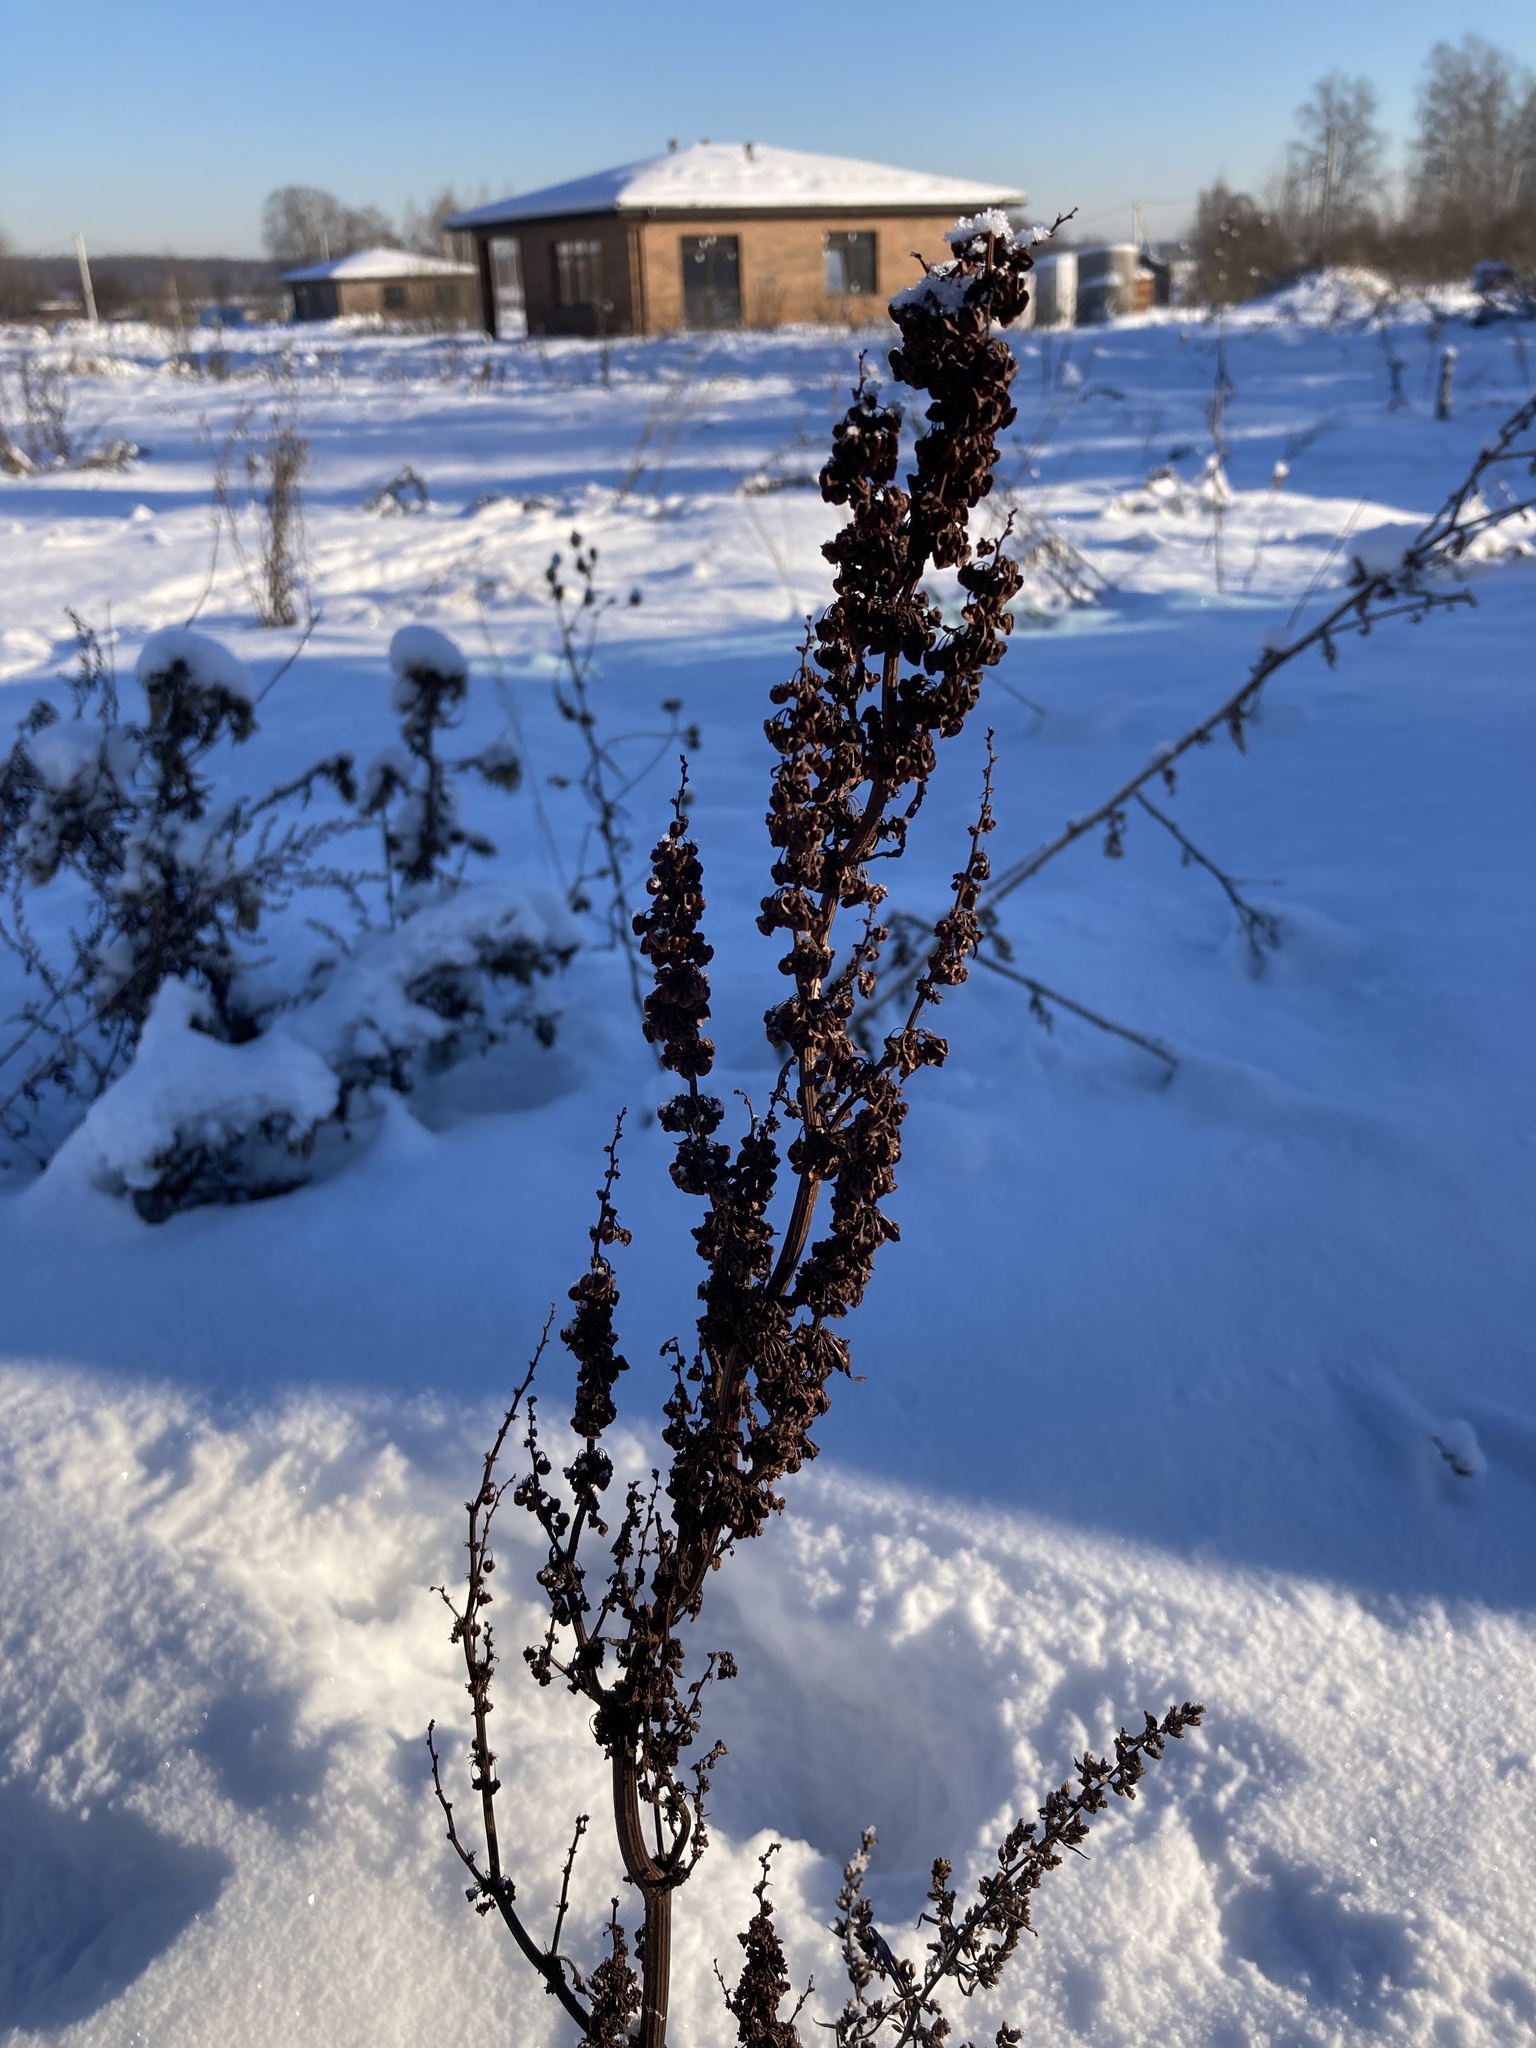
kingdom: Plantae
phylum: Tracheophyta
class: Magnoliopsida
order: Caryophyllales
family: Polygonaceae
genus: Rumex
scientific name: Rumex crispus
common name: Curled dock
